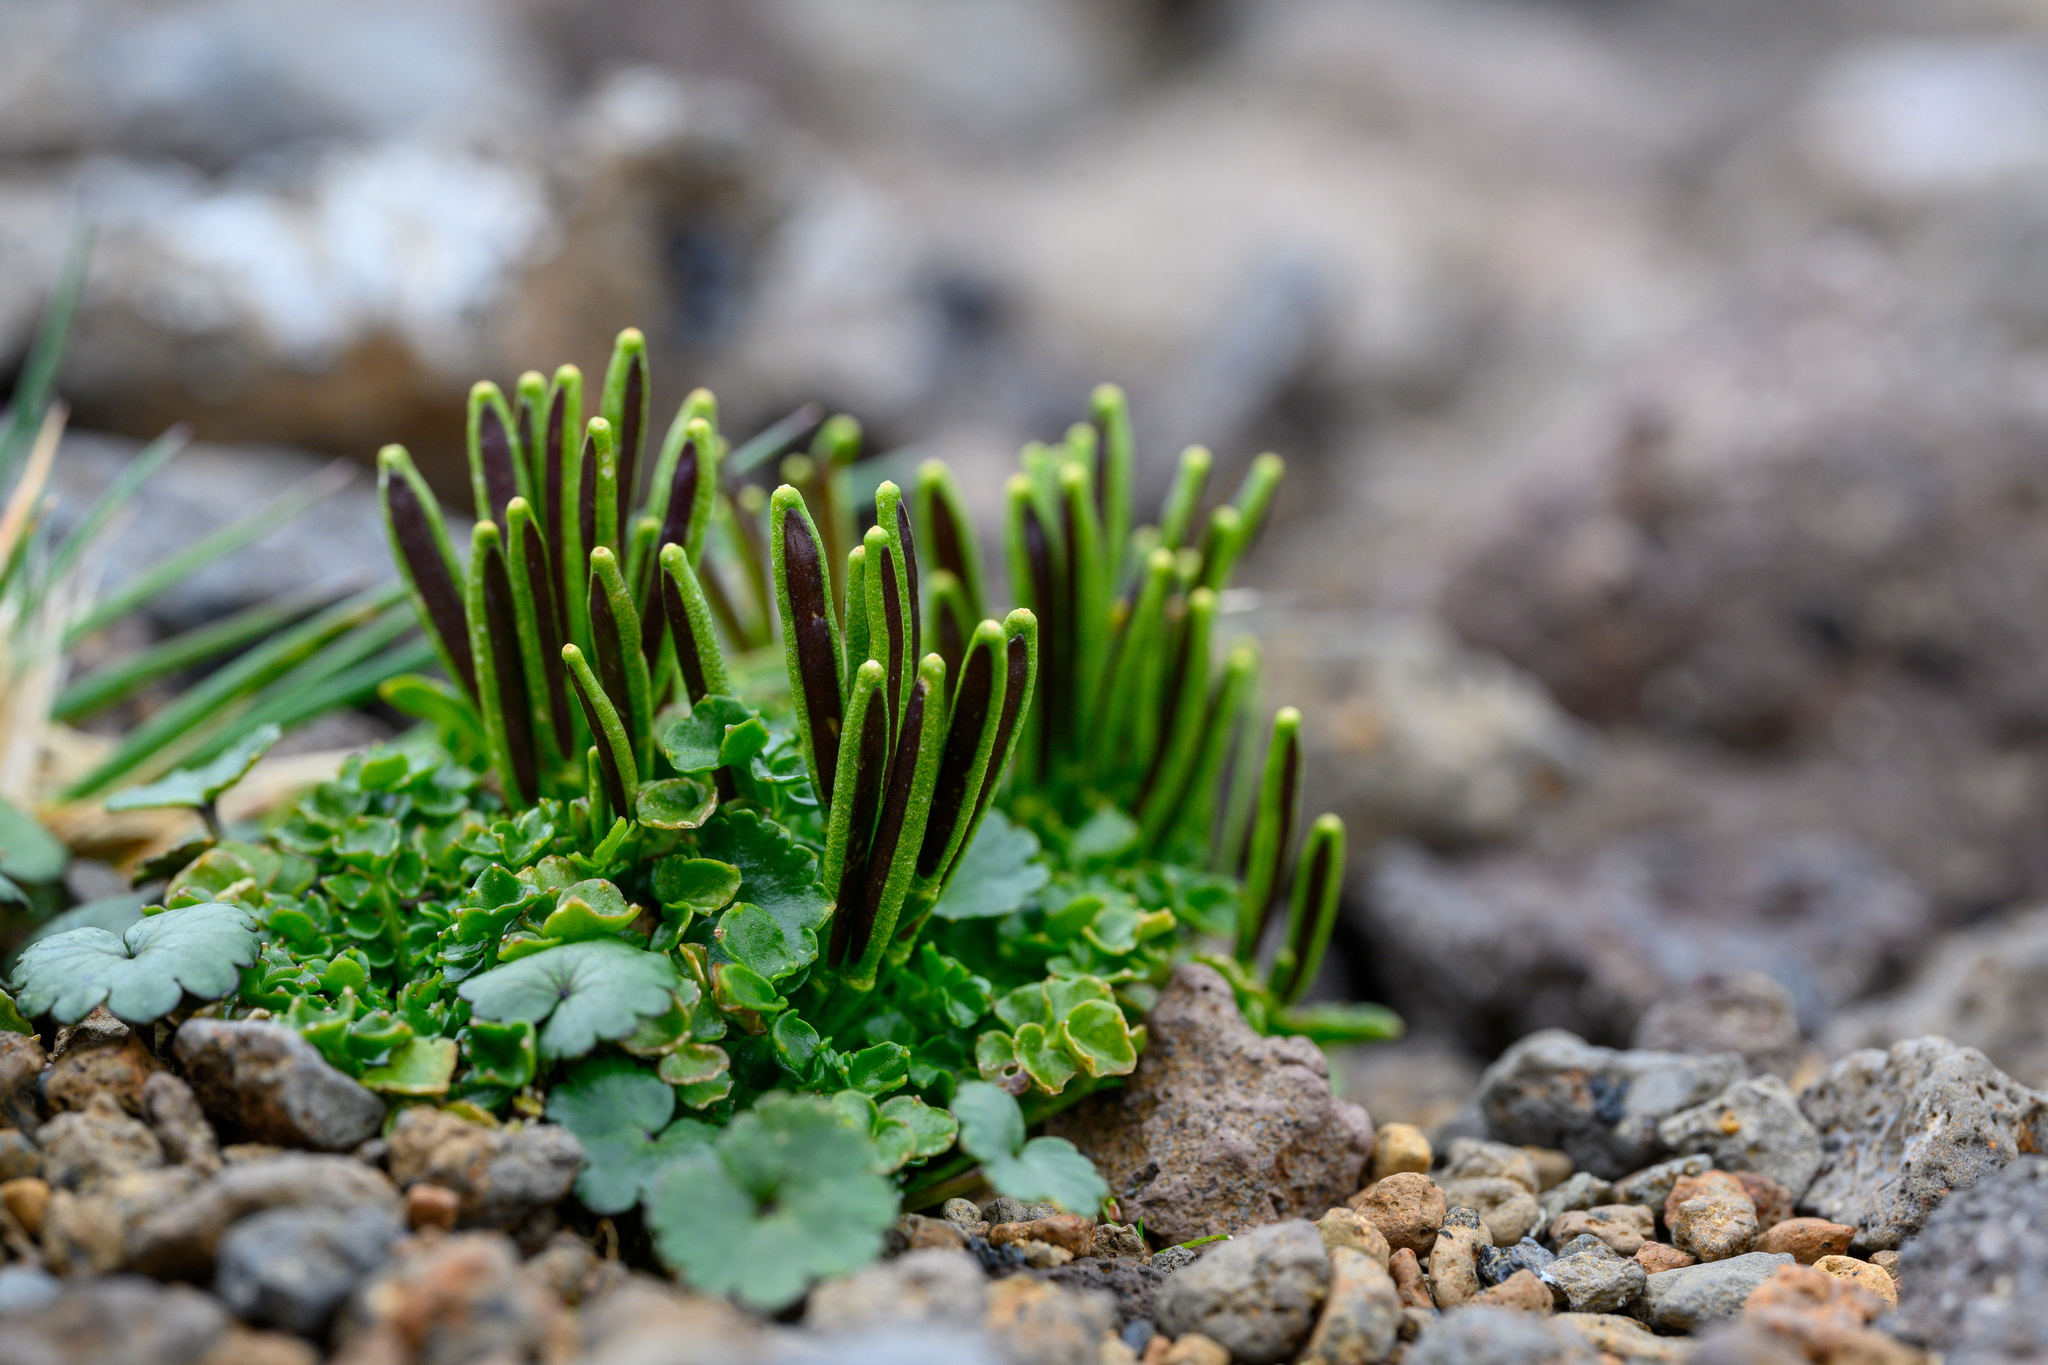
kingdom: Plantae
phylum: Tracheophyta
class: Magnoliopsida
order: Brassicales
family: Brassicaceae
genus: Cardamine
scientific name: Cardamine latior
